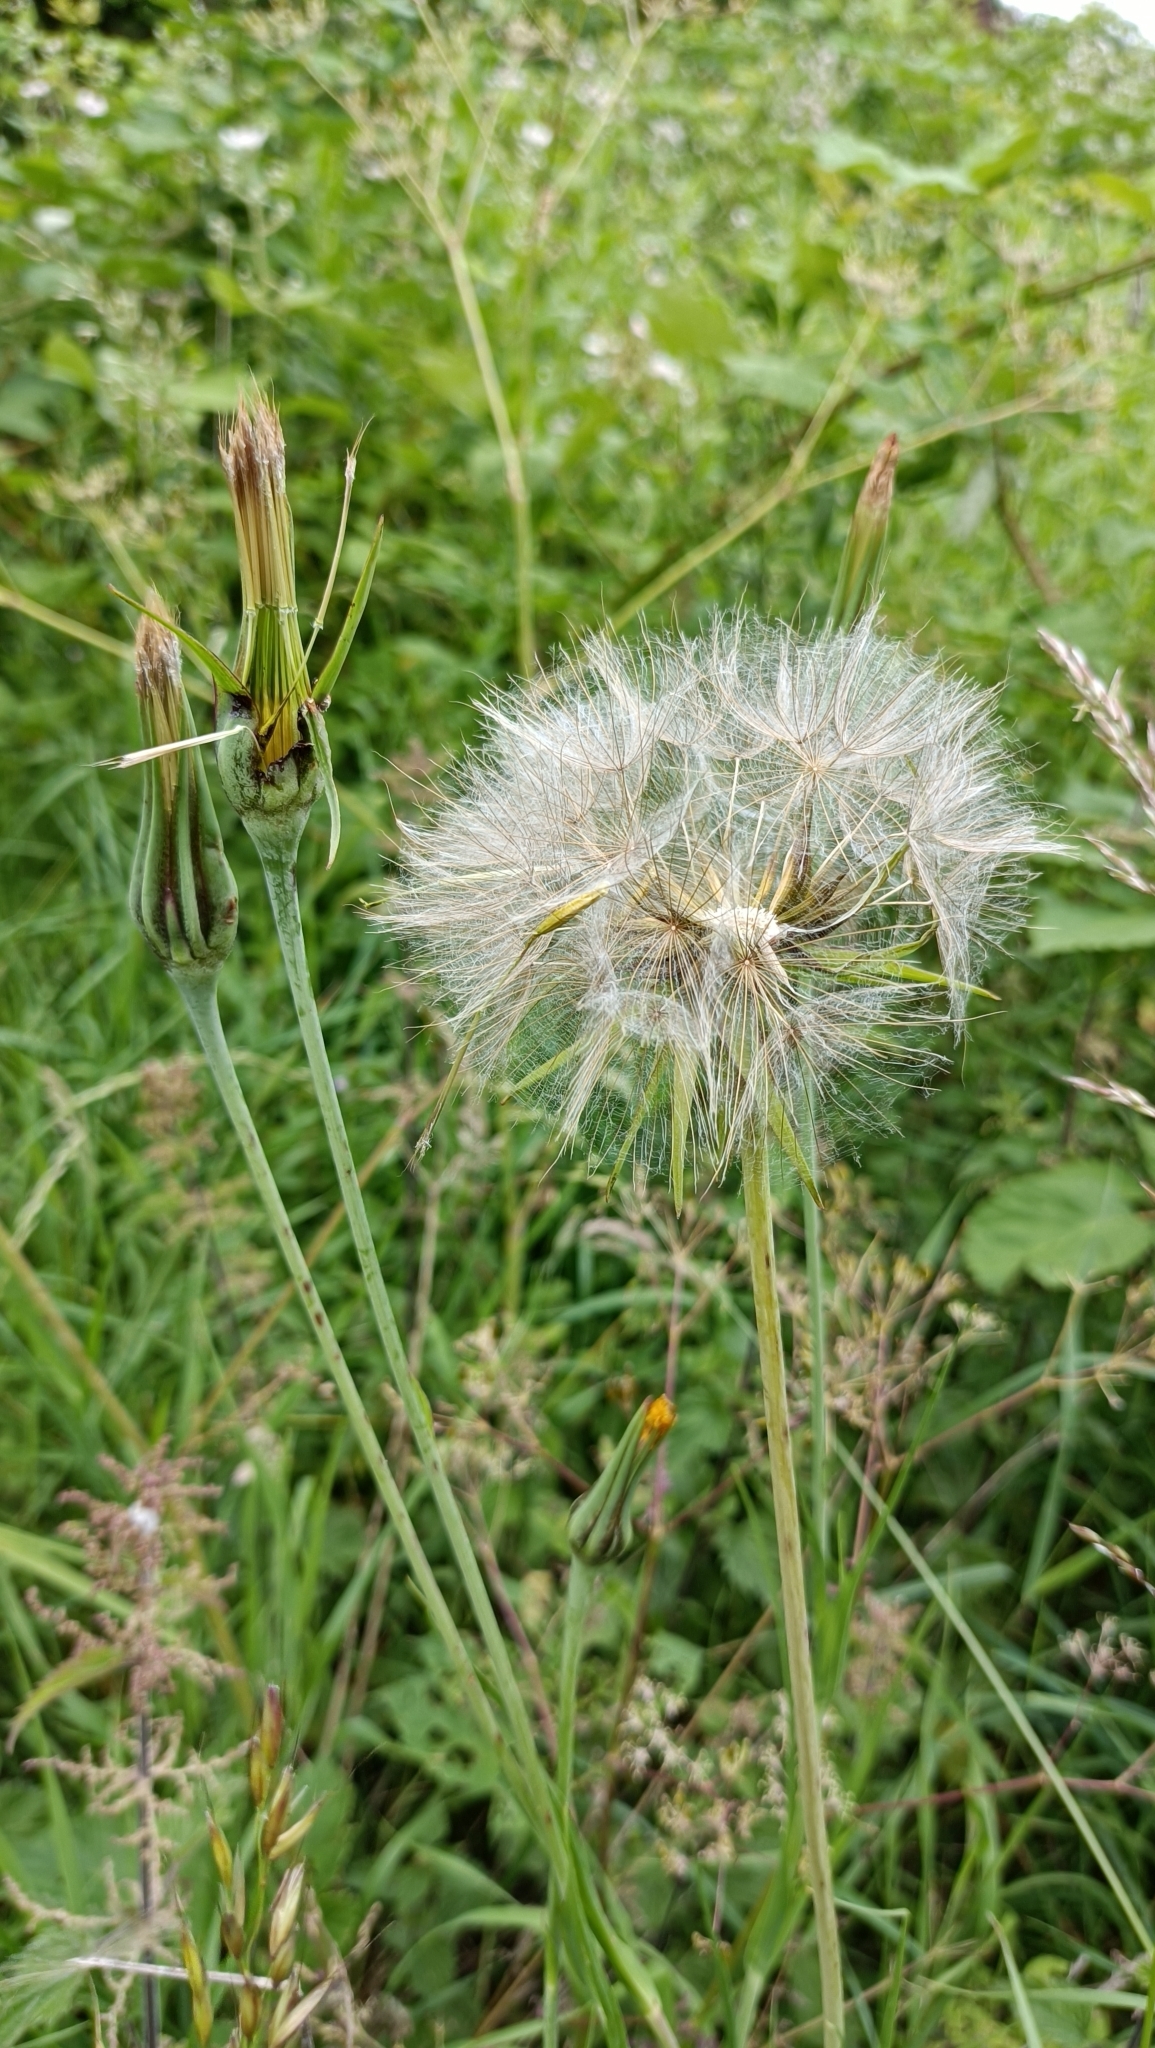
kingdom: Plantae
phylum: Tracheophyta
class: Magnoliopsida
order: Asterales
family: Asteraceae
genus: Tragopogon
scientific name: Tragopogon pratensis
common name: Goat's-beard
